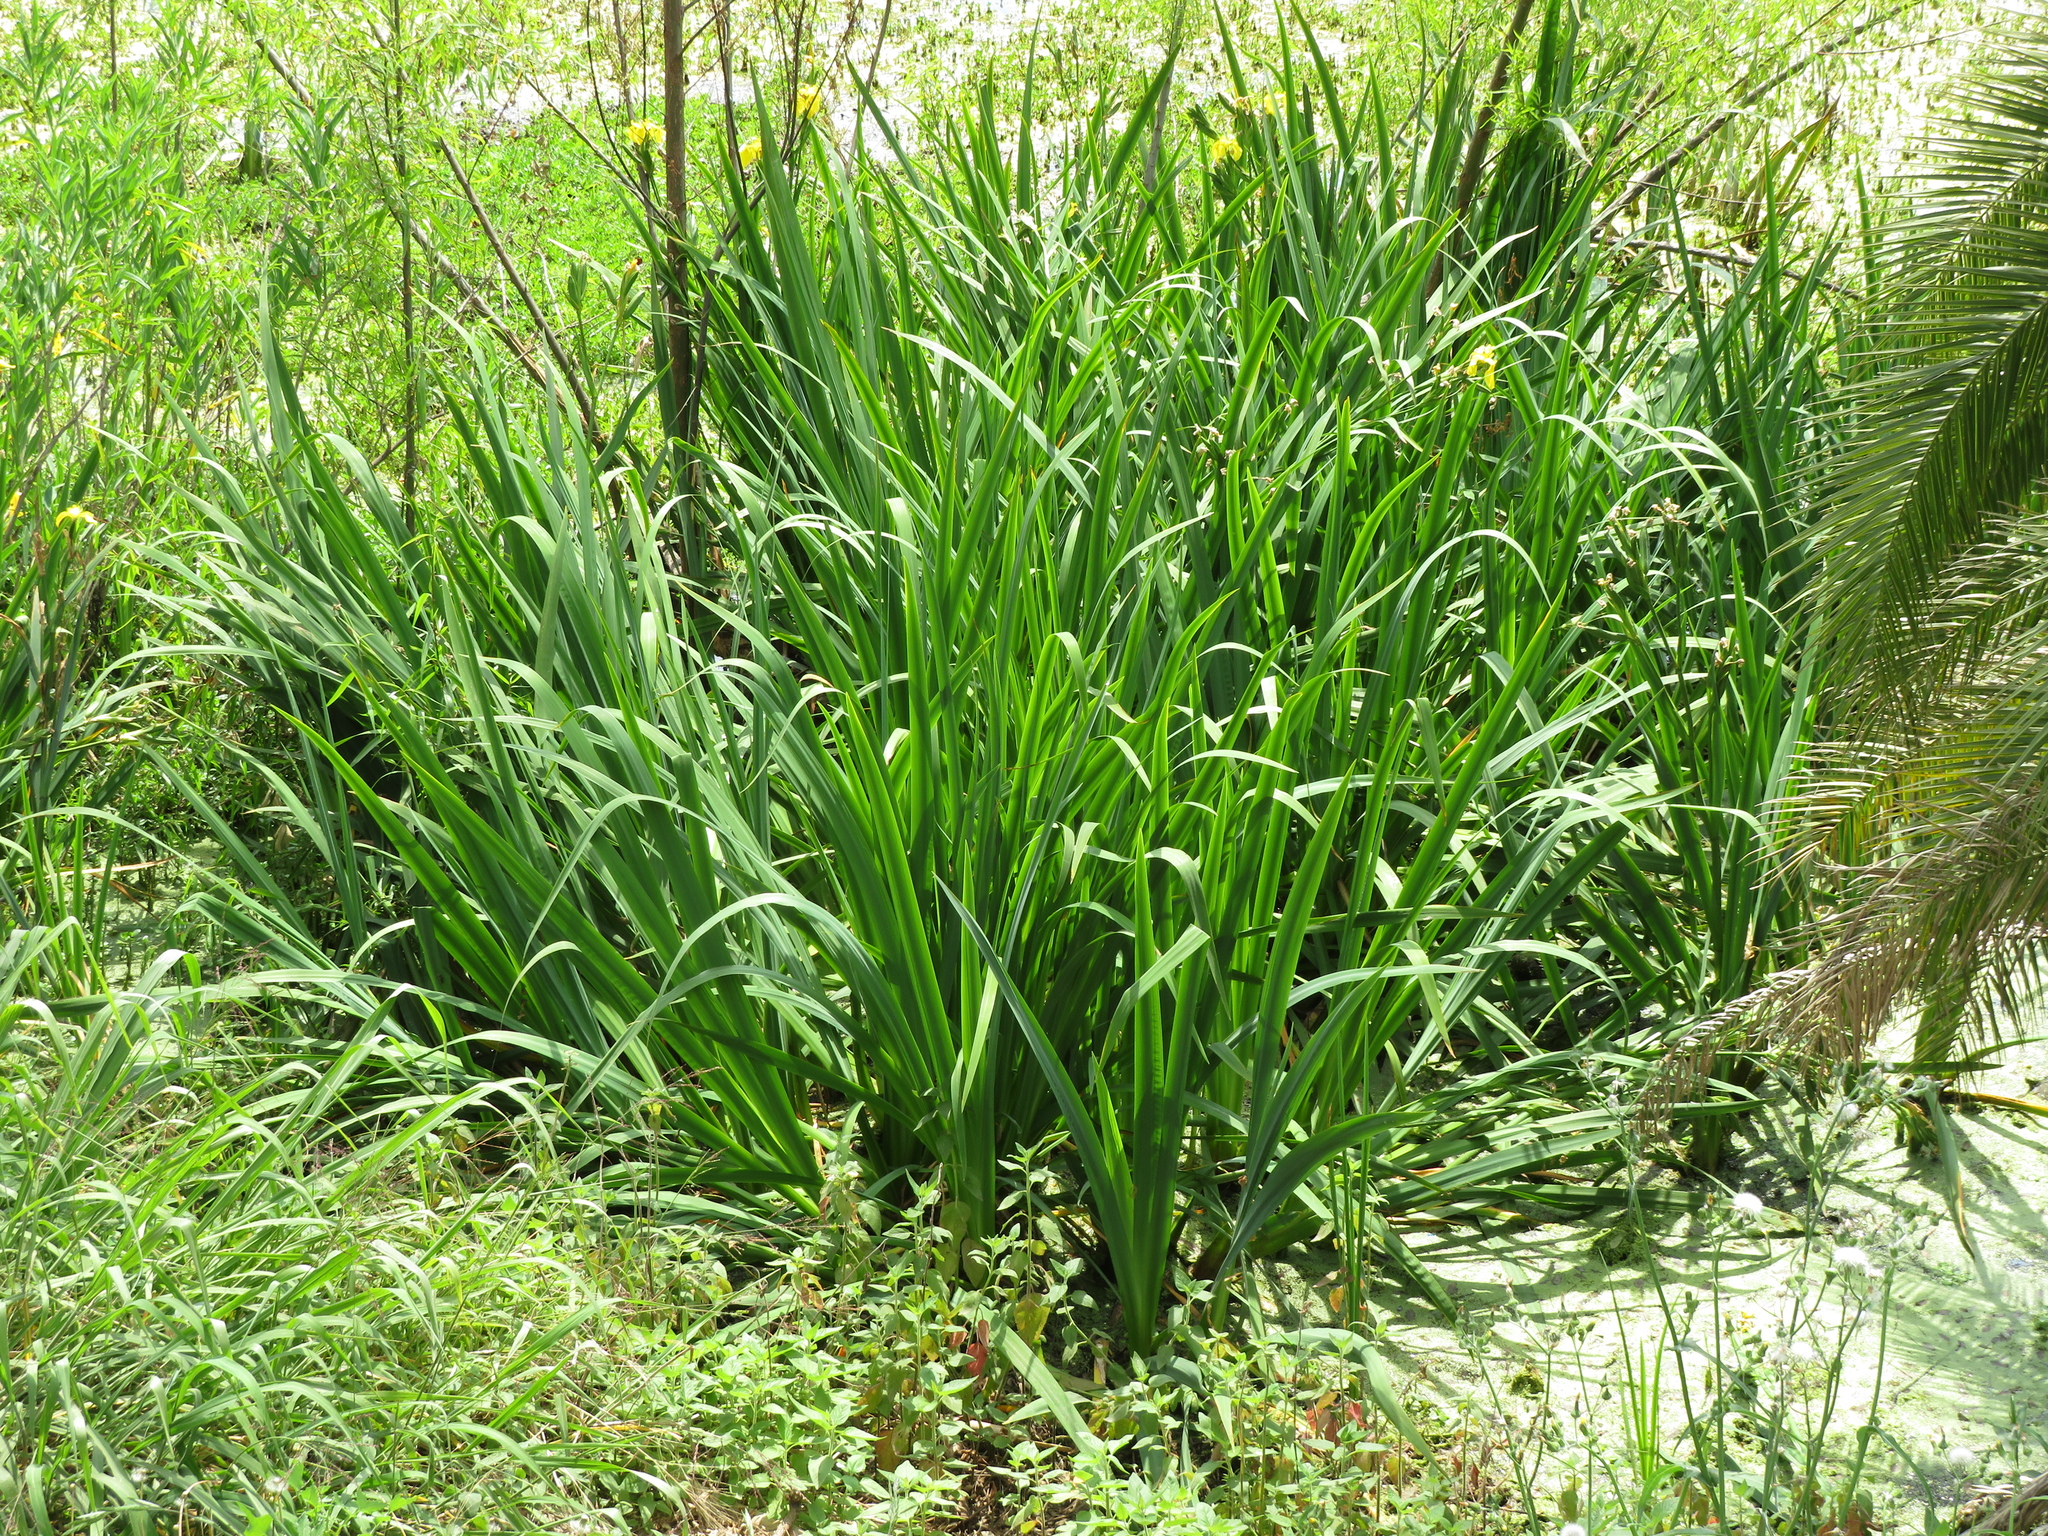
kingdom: Plantae
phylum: Tracheophyta
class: Liliopsida
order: Asparagales
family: Iridaceae
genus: Iris
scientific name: Iris pseudacorus
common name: Yellow flag
